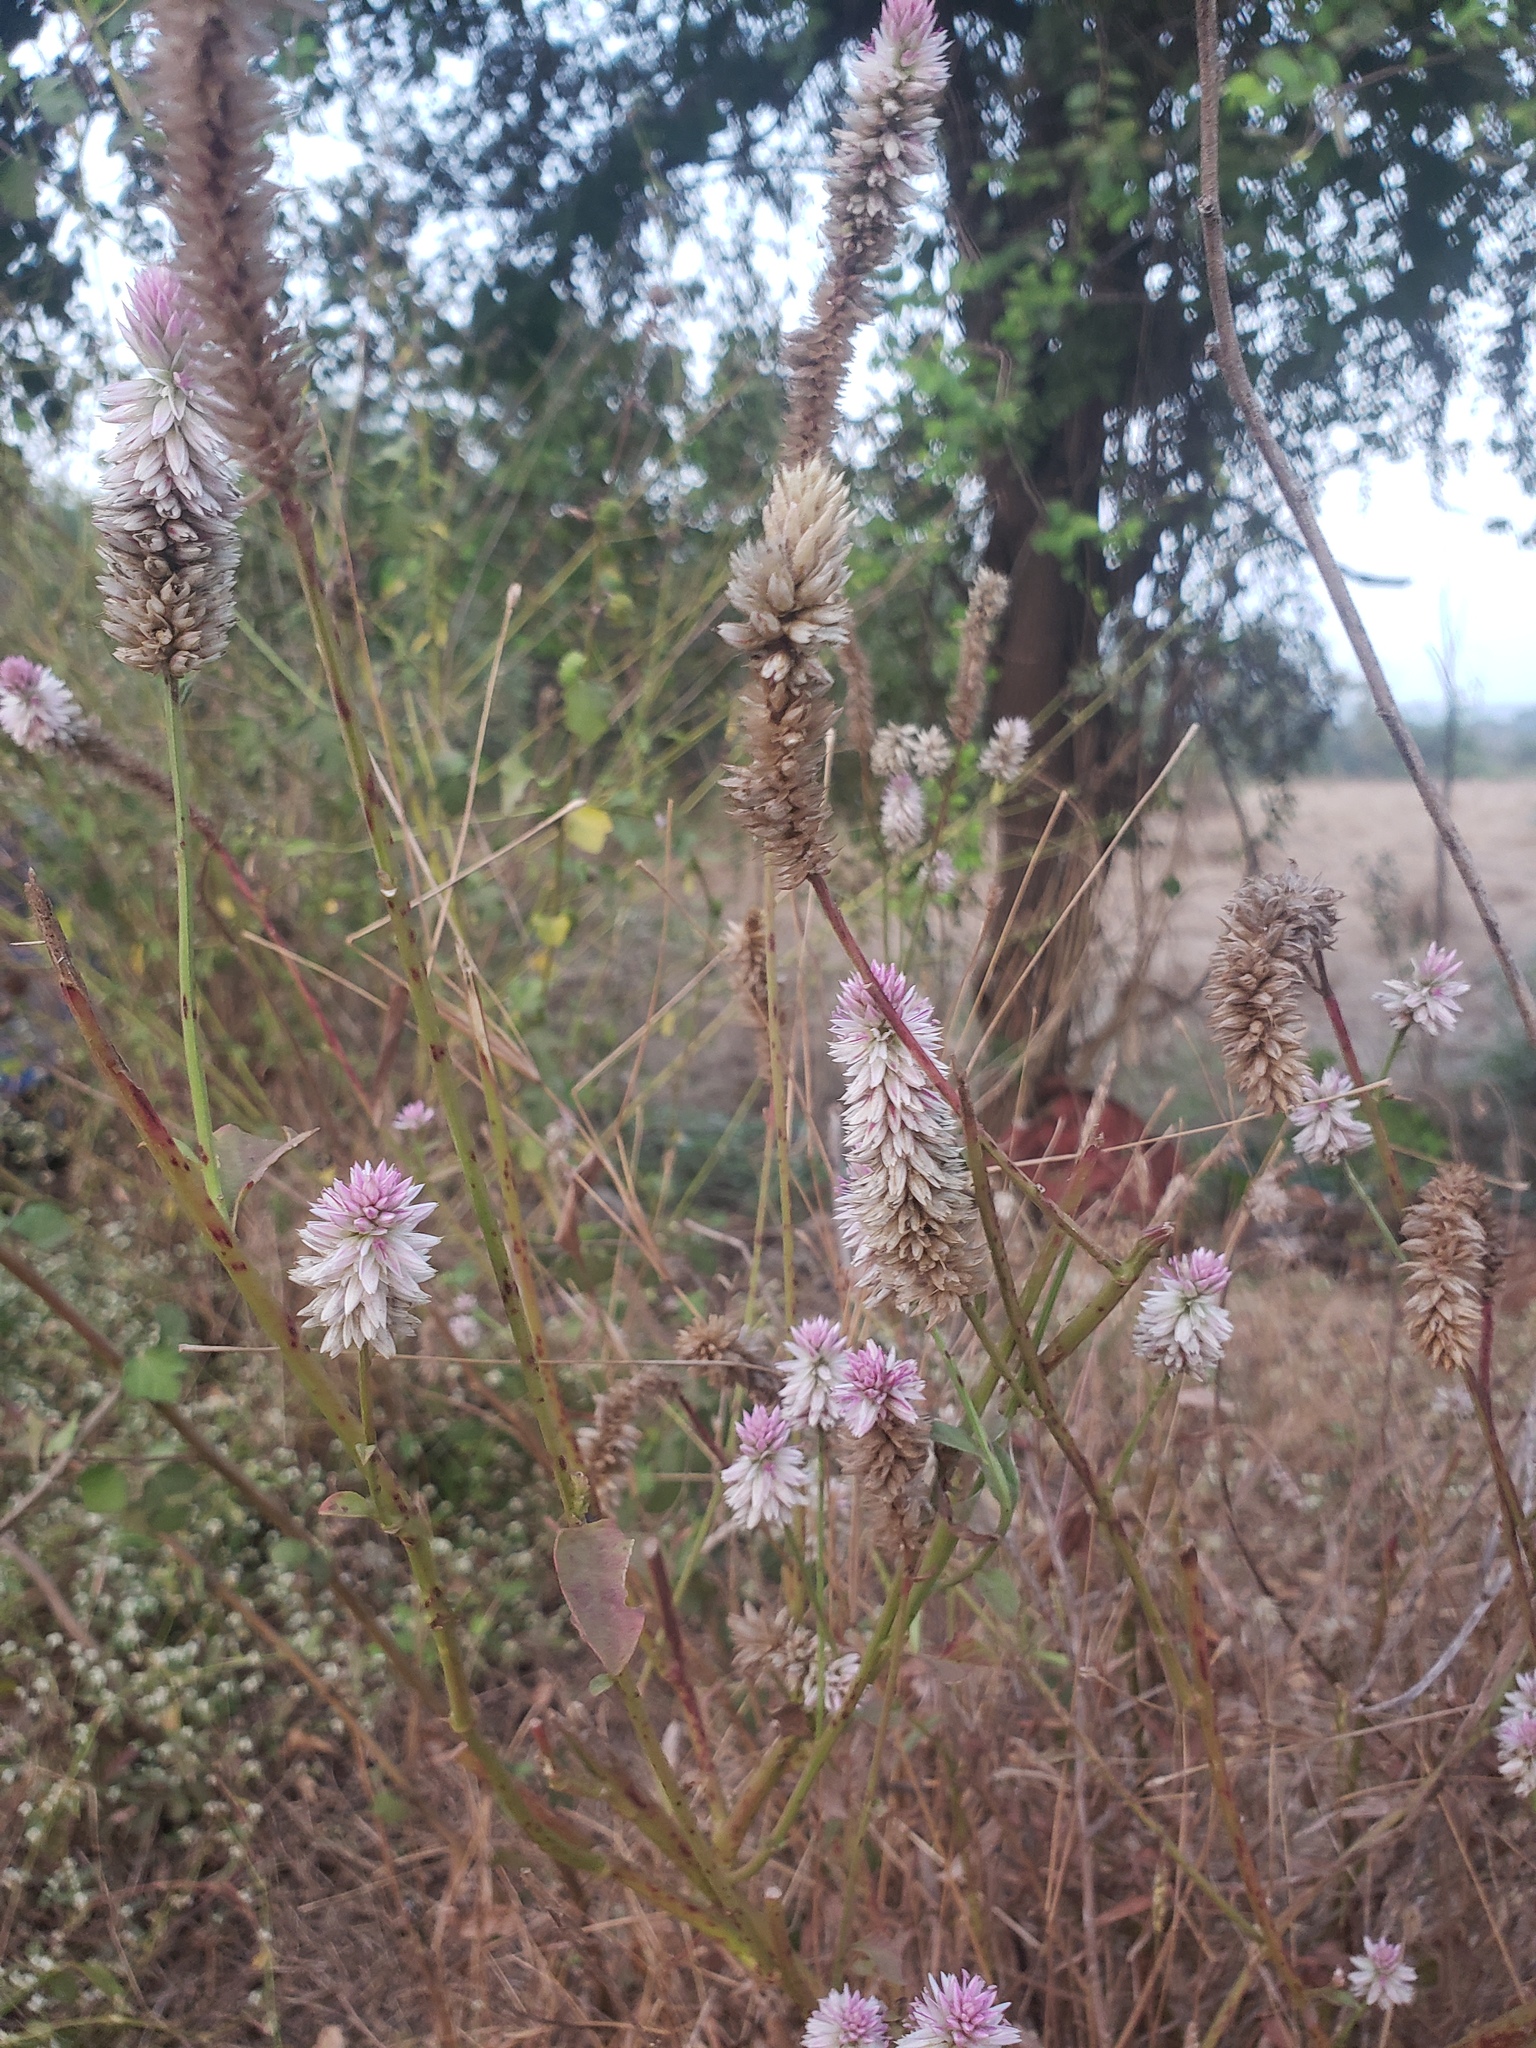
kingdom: Plantae
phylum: Tracheophyta
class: Magnoliopsida
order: Caryophyllales
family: Amaranthaceae
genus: Celosia
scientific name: Celosia argentea
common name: Feather cockscomb
